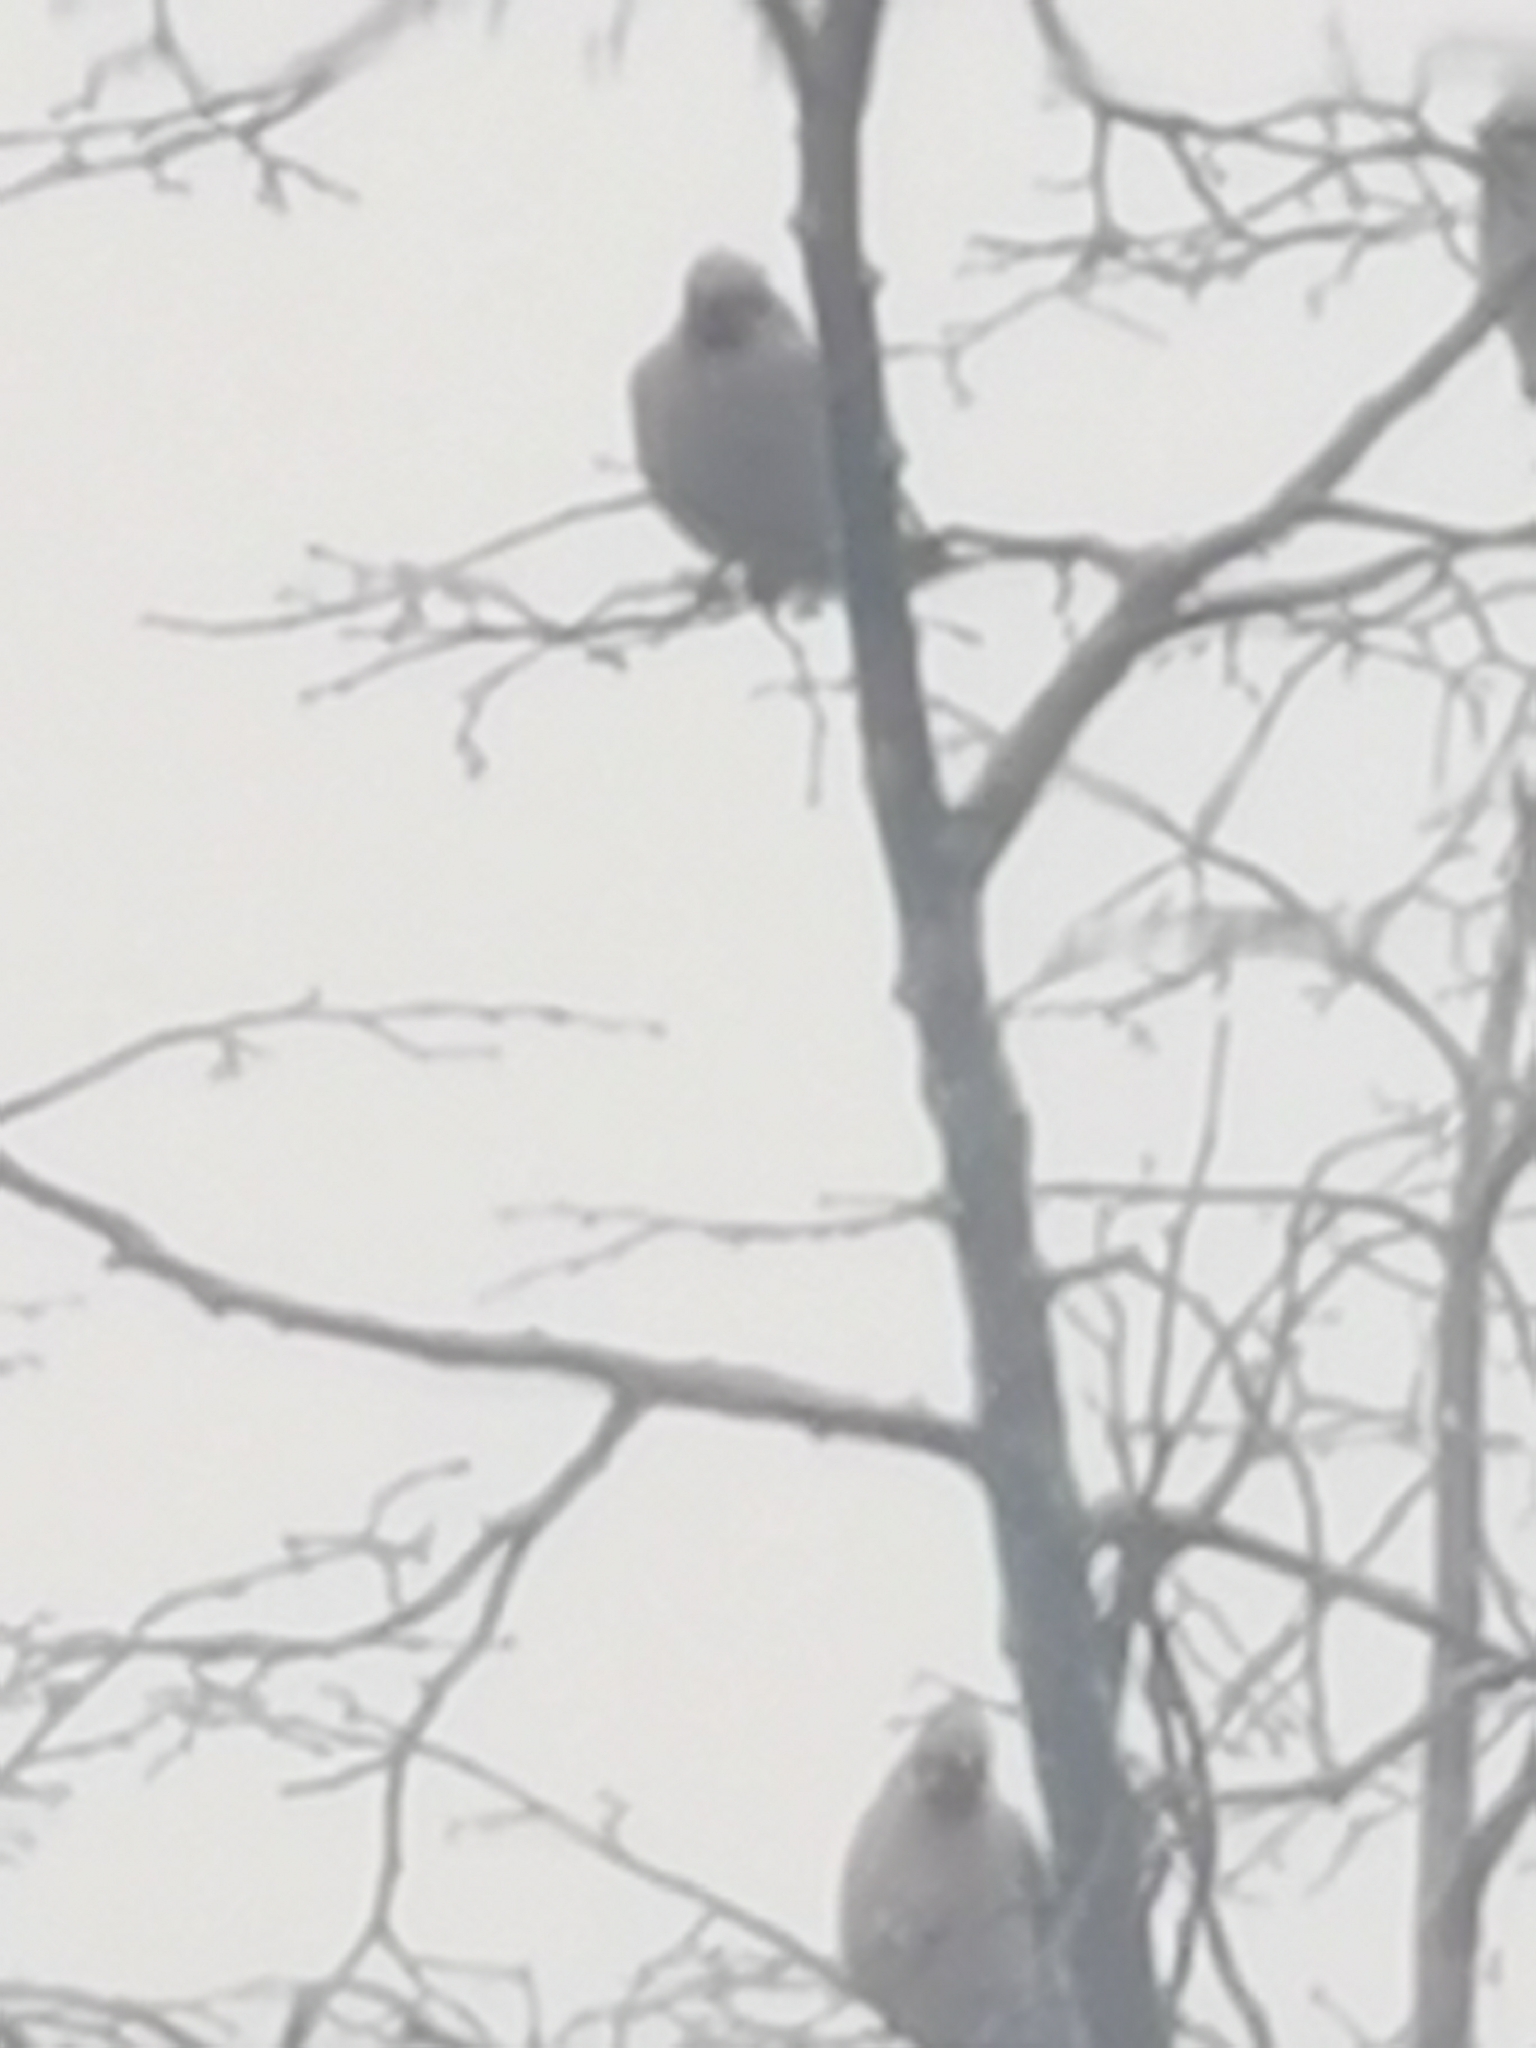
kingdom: Animalia
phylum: Chordata
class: Aves
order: Passeriformes
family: Bombycillidae
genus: Bombycilla
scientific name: Bombycilla garrulus
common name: Bohemian waxwing
